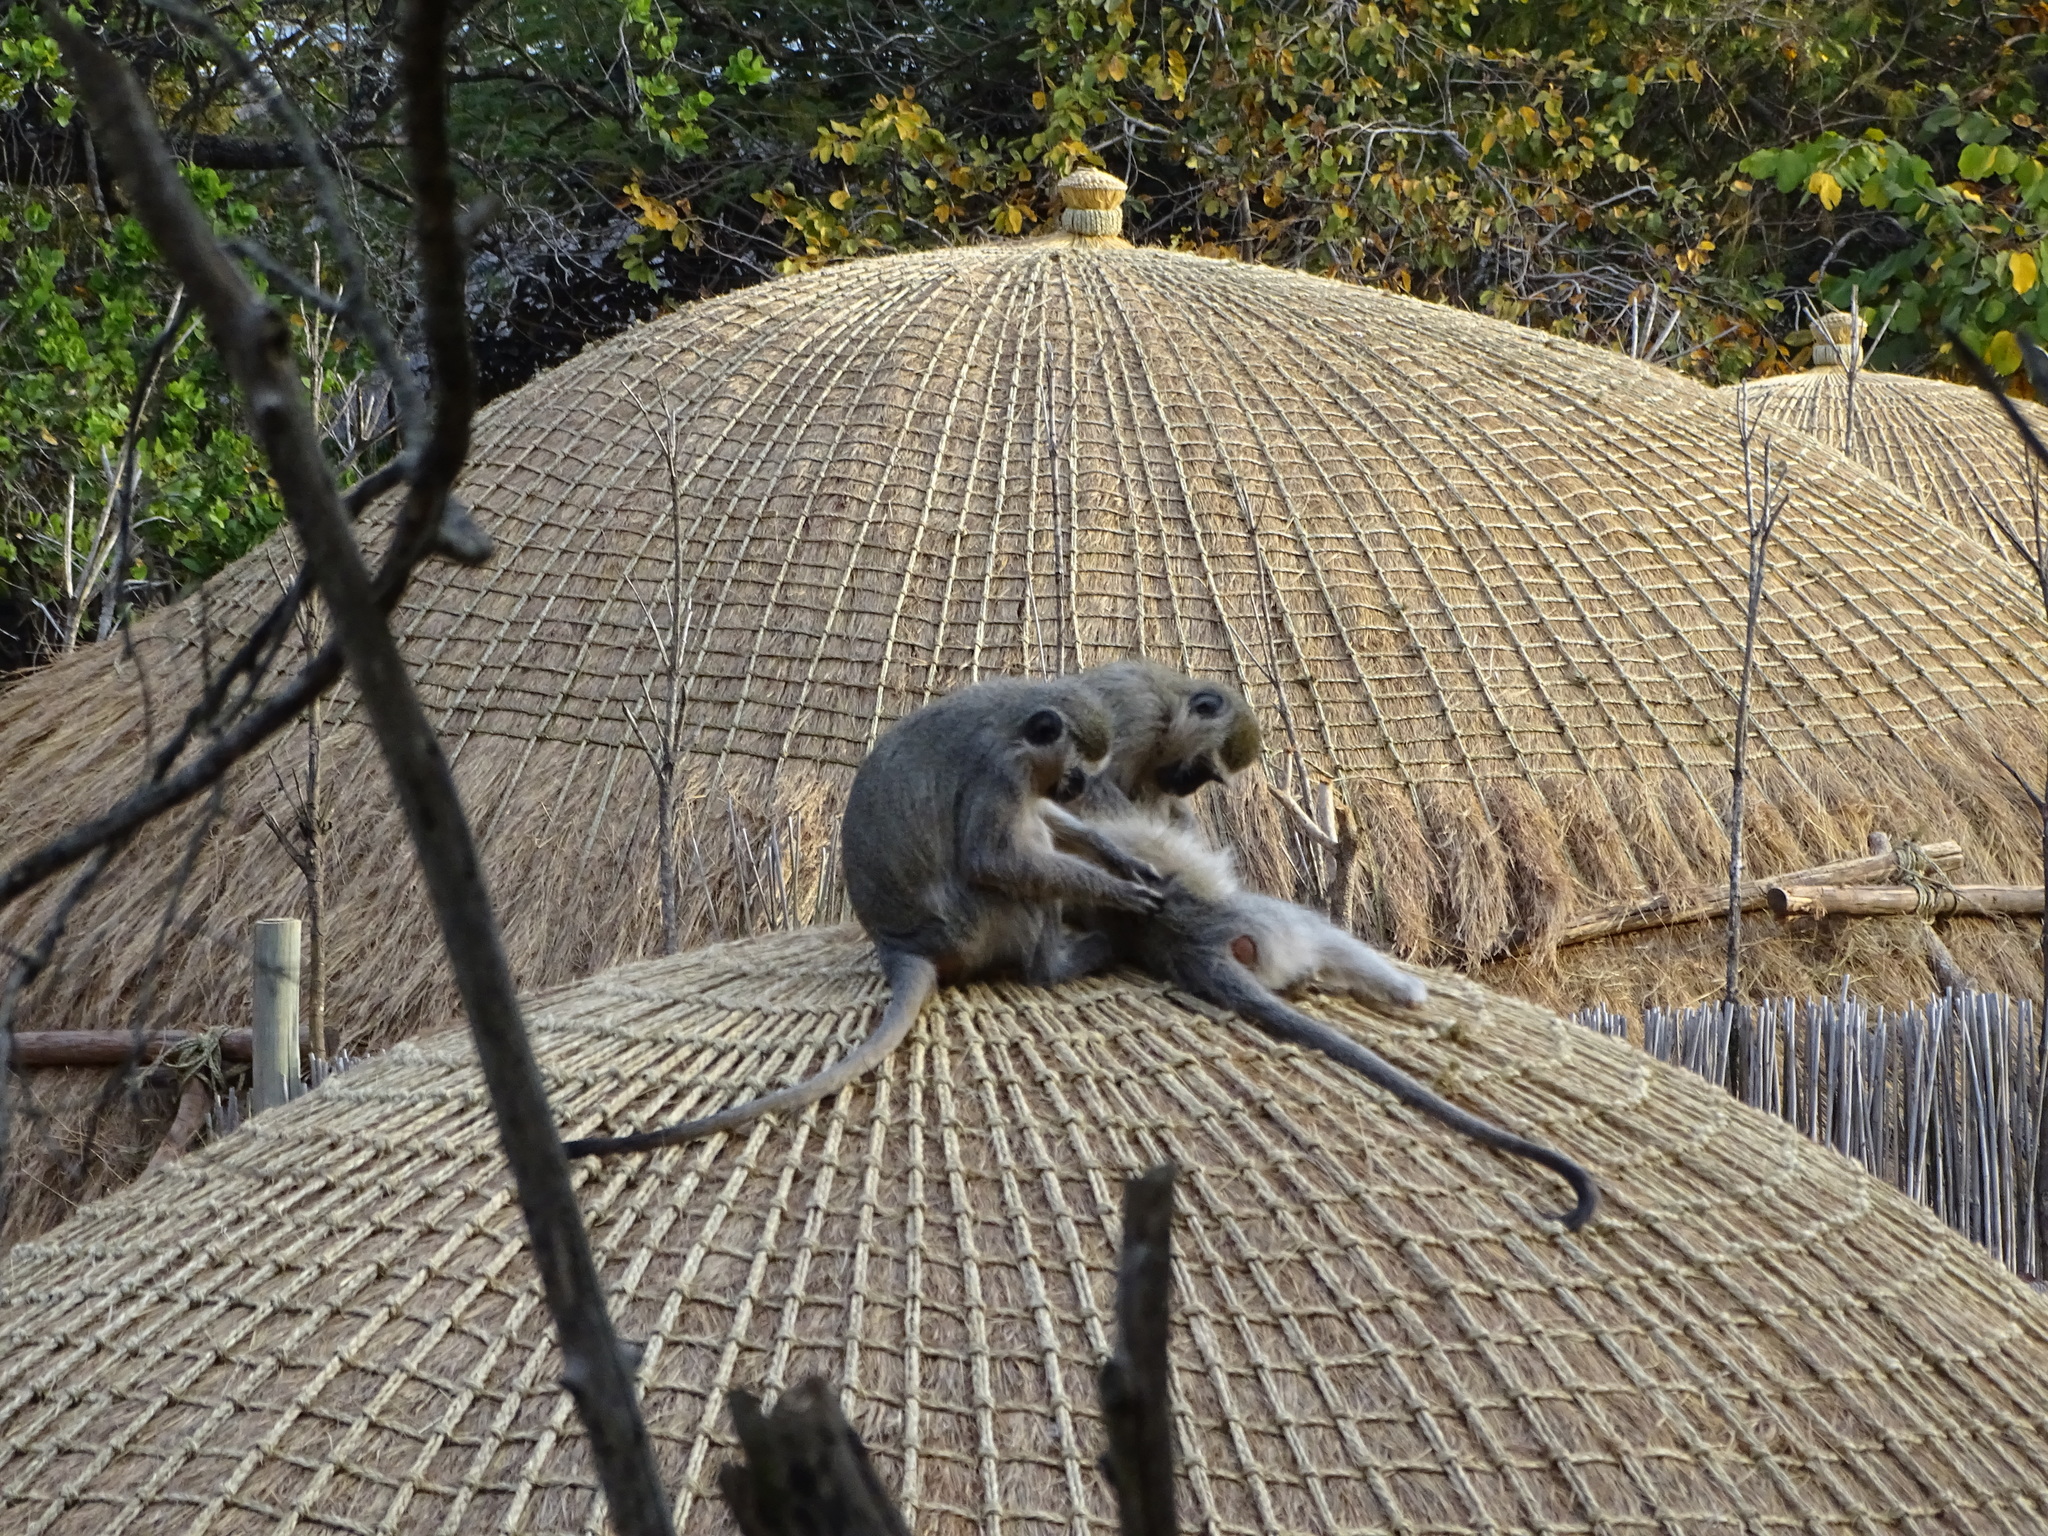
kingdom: Animalia
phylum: Chordata
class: Mammalia
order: Primates
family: Cercopithecidae
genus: Chlorocebus
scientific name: Chlorocebus pygerythrus
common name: Vervet monkey
